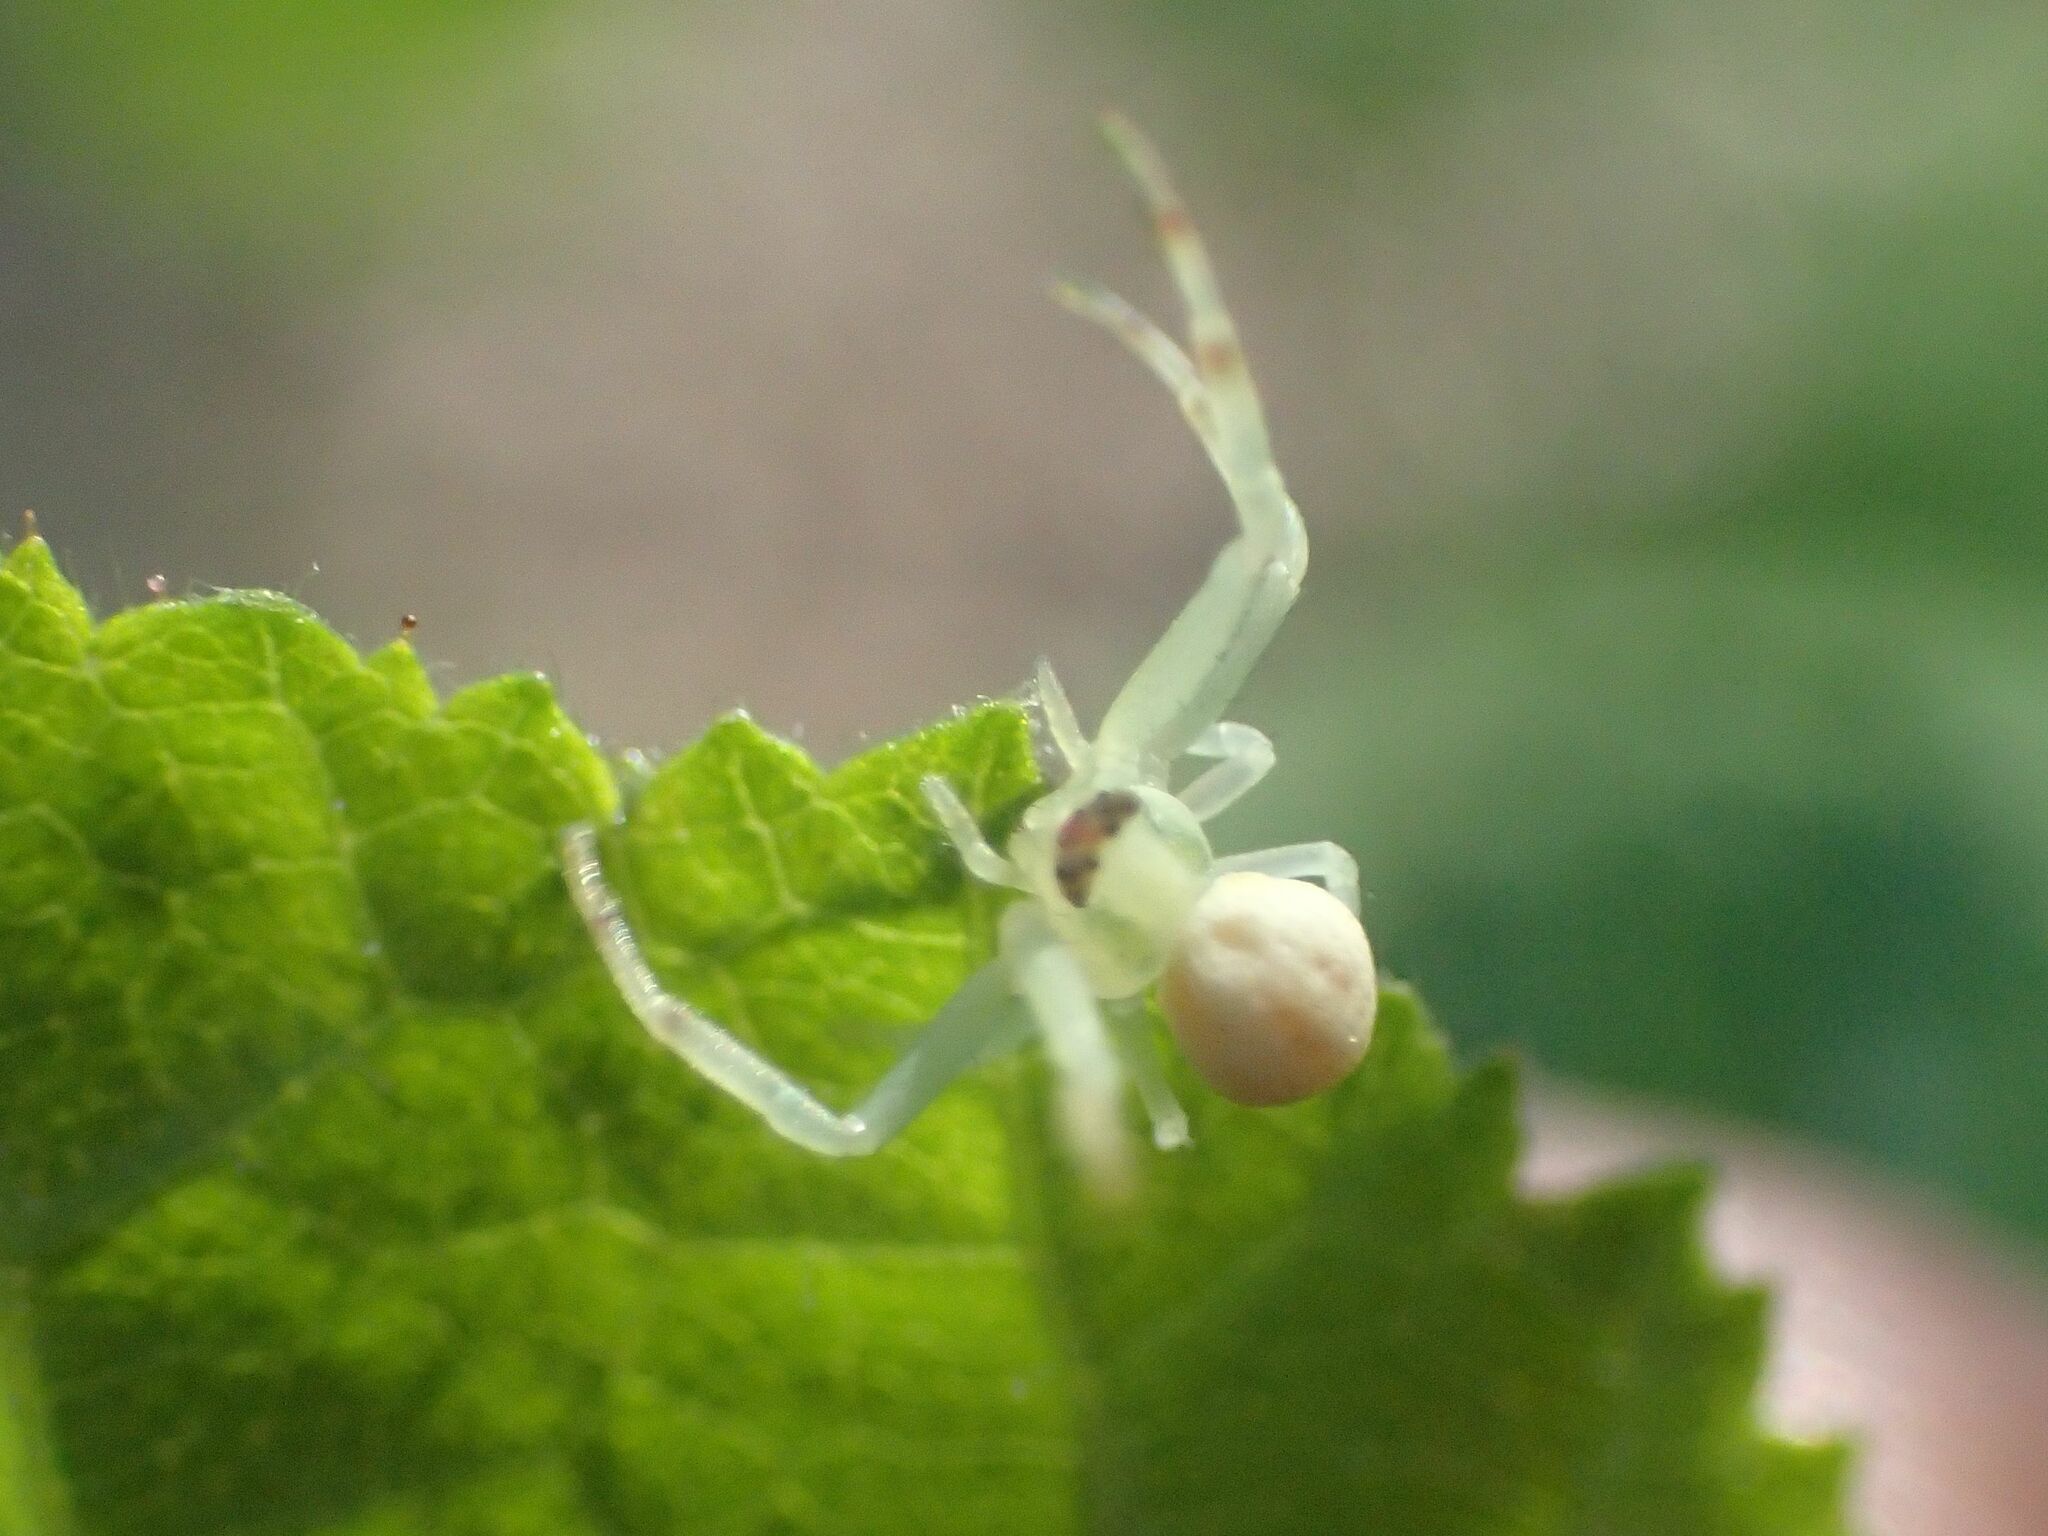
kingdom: Animalia
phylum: Arthropoda
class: Arachnida
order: Araneae
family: Thomisidae
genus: Misumena
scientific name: Misumena vatia
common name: Goldenrod crab spider
